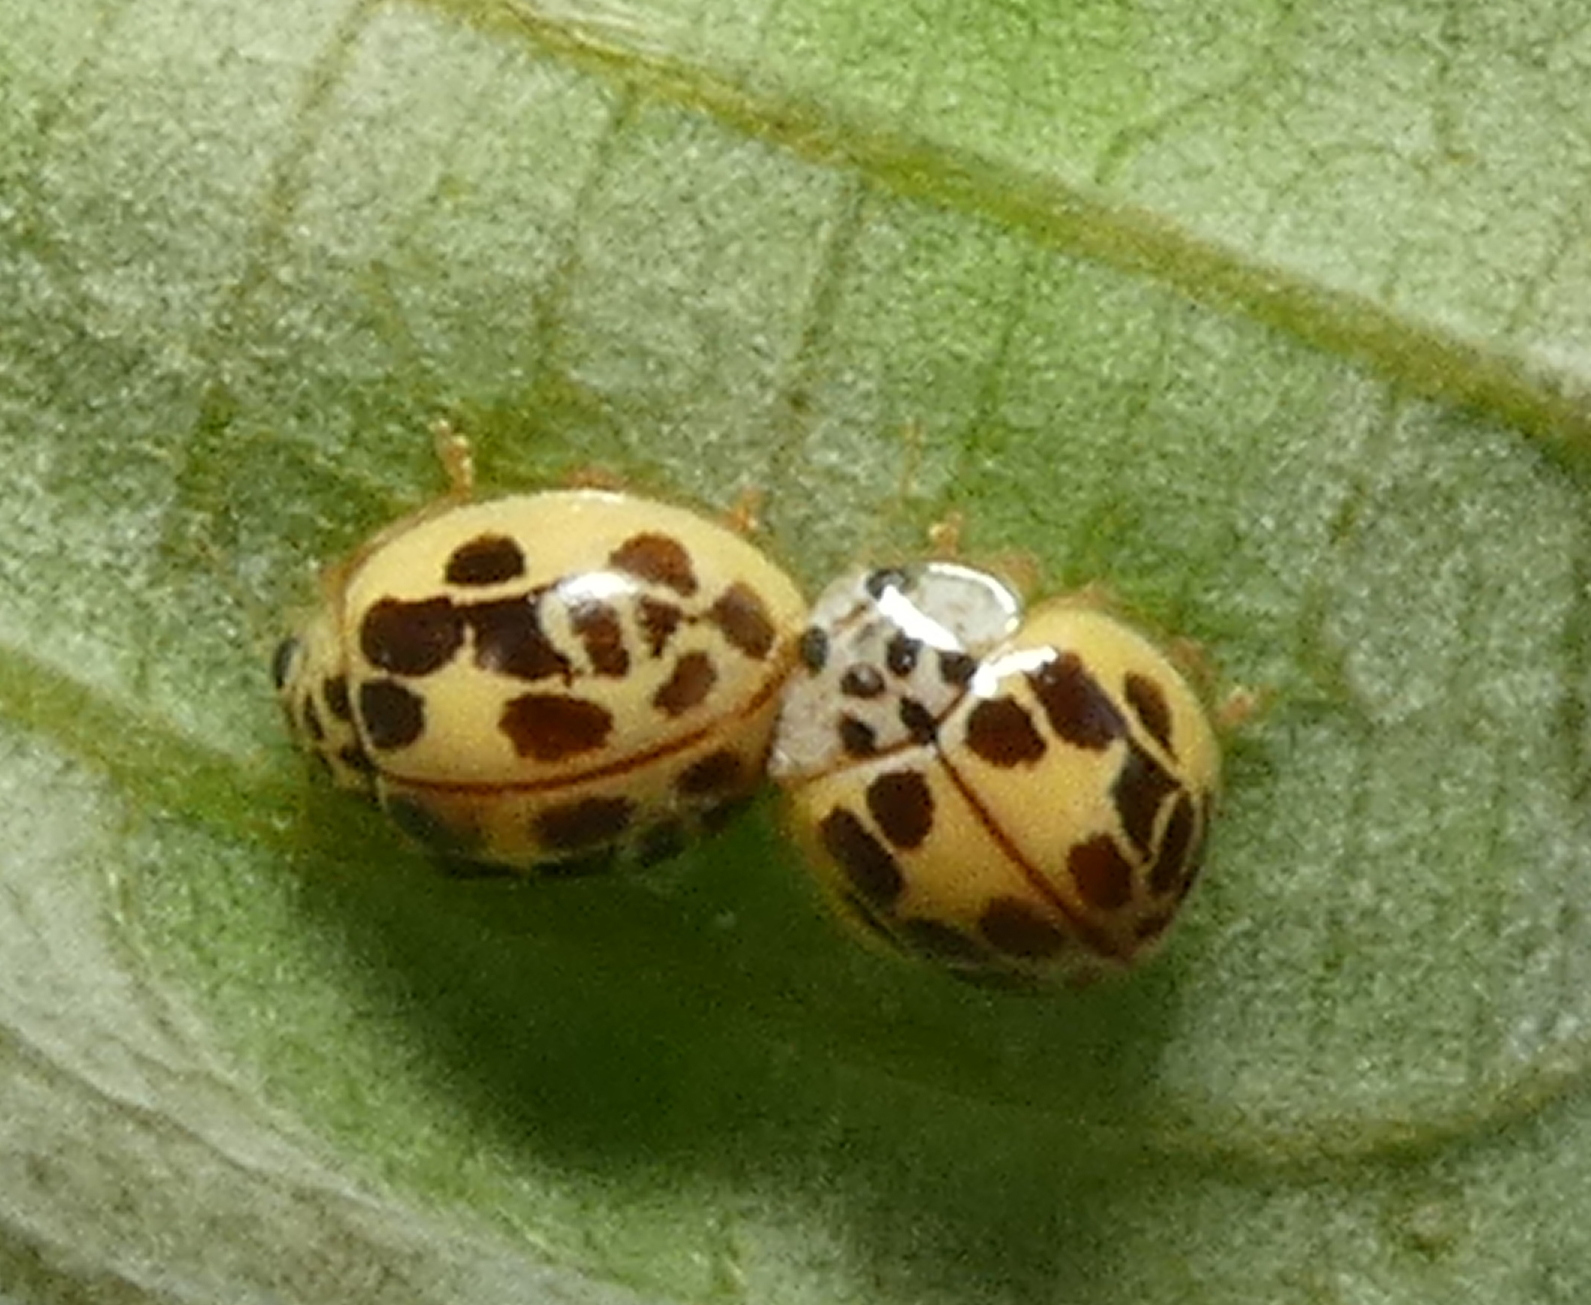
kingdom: Animalia
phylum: Arthropoda
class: Insecta
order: Coleoptera
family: Coccinellidae
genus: Psyllobora
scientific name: Psyllobora confluens
